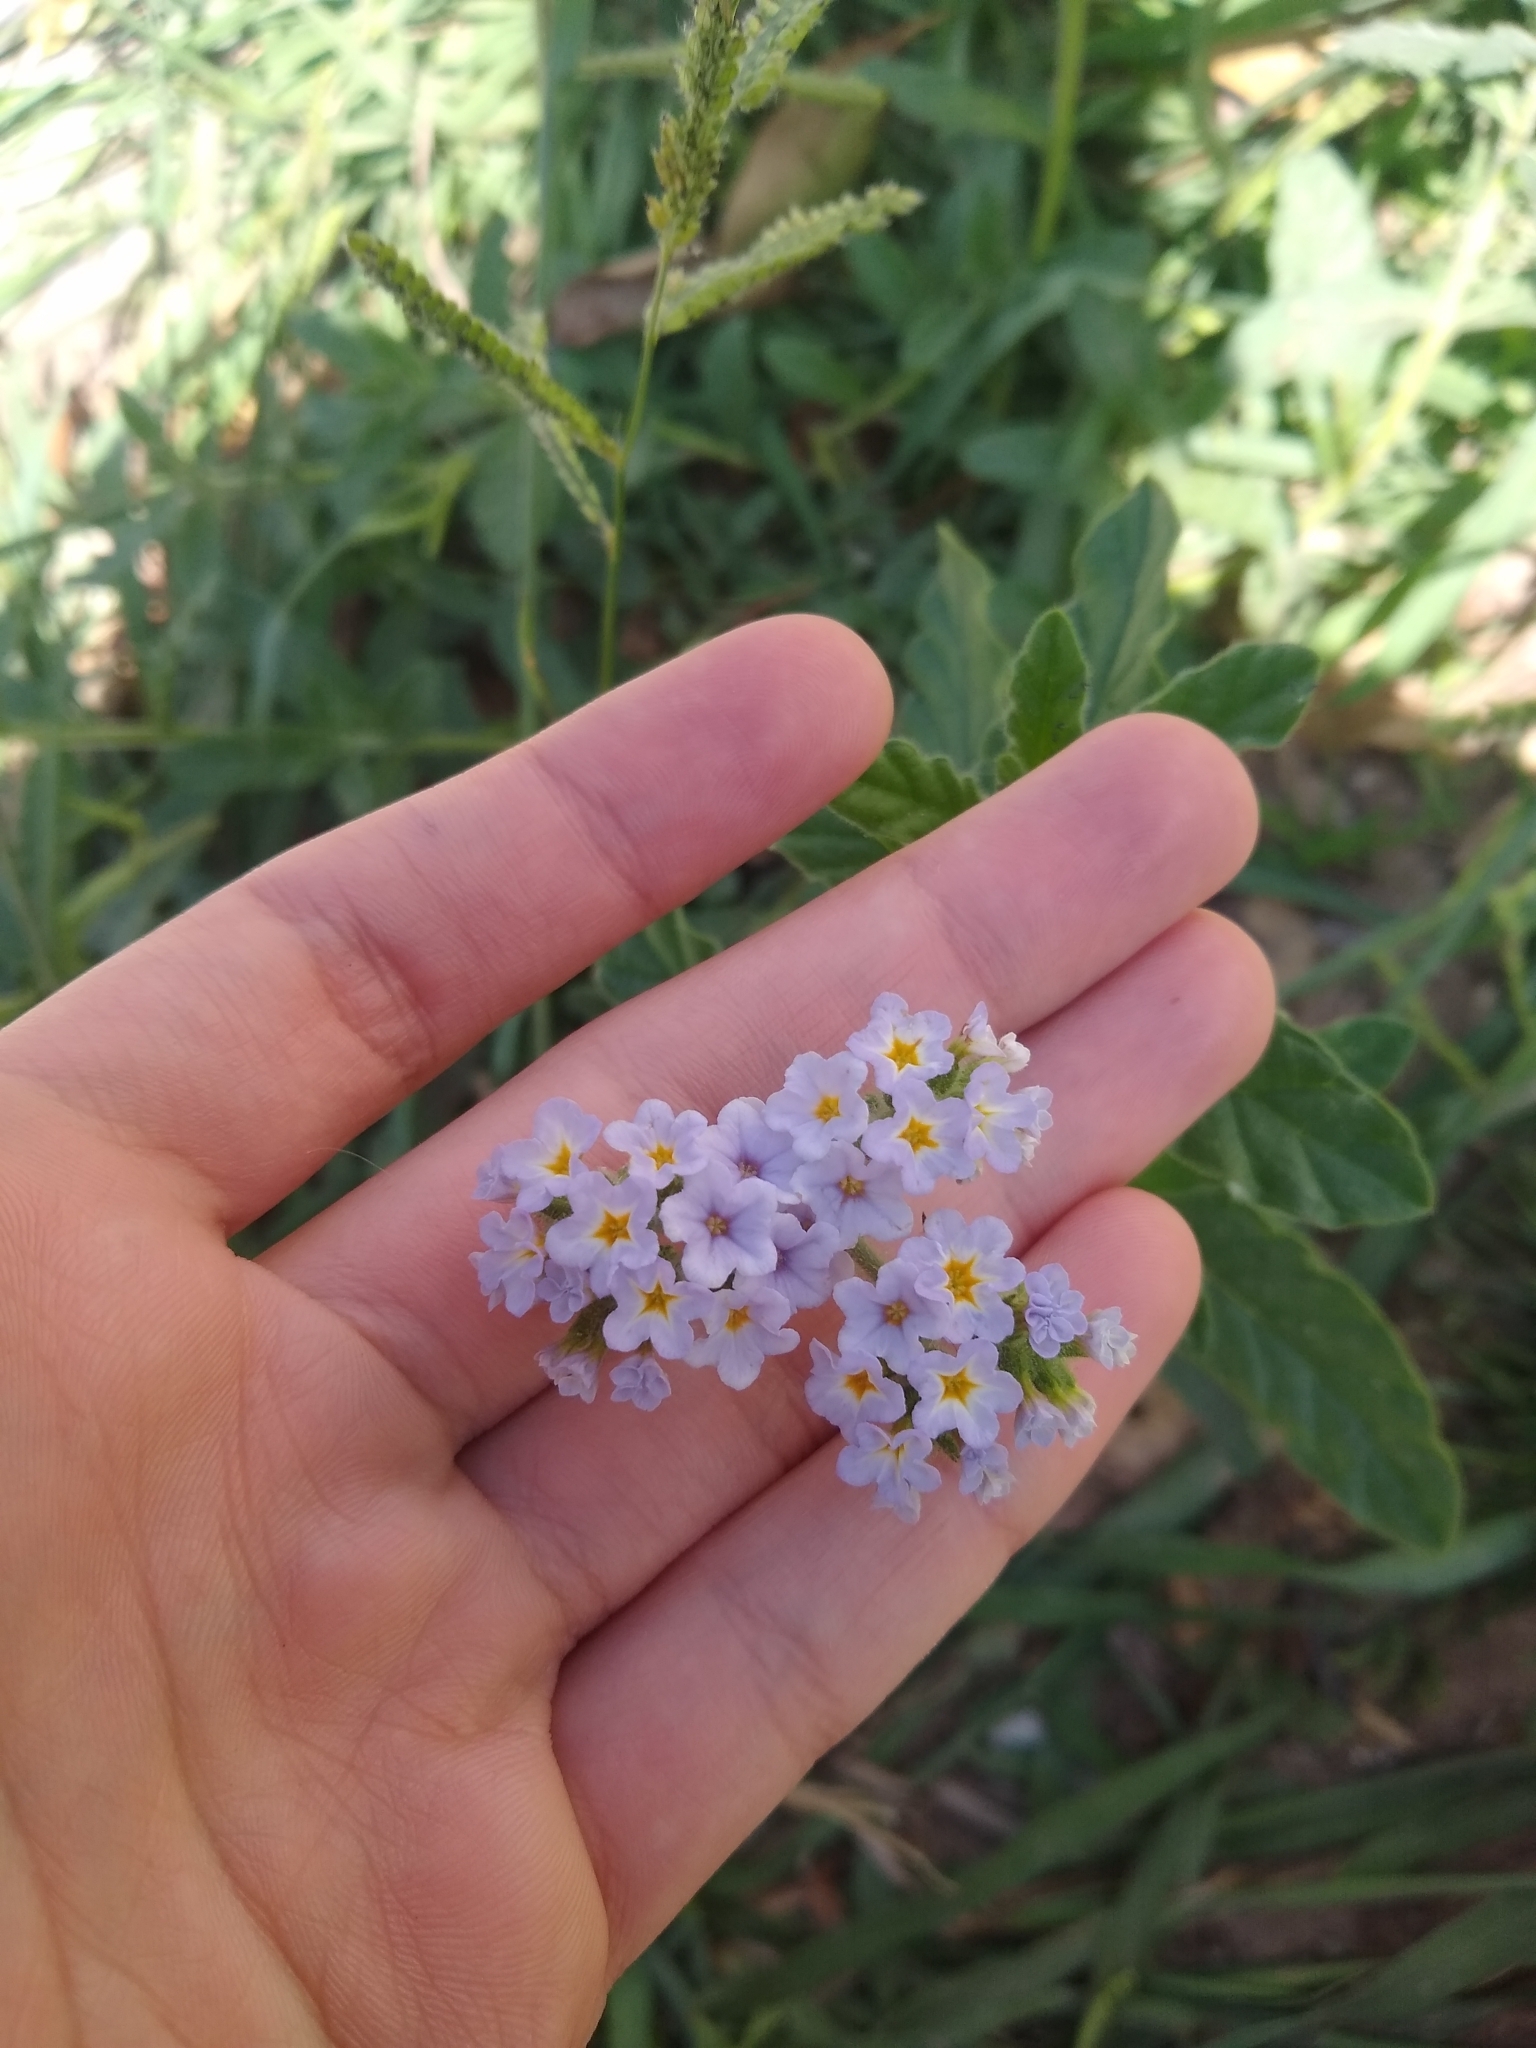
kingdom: Plantae
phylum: Tracheophyta
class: Magnoliopsida
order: Boraginales
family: Heliotropiaceae
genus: Heliotropium
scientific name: Heliotropium amplexicaule
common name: Clasping heliotrope
